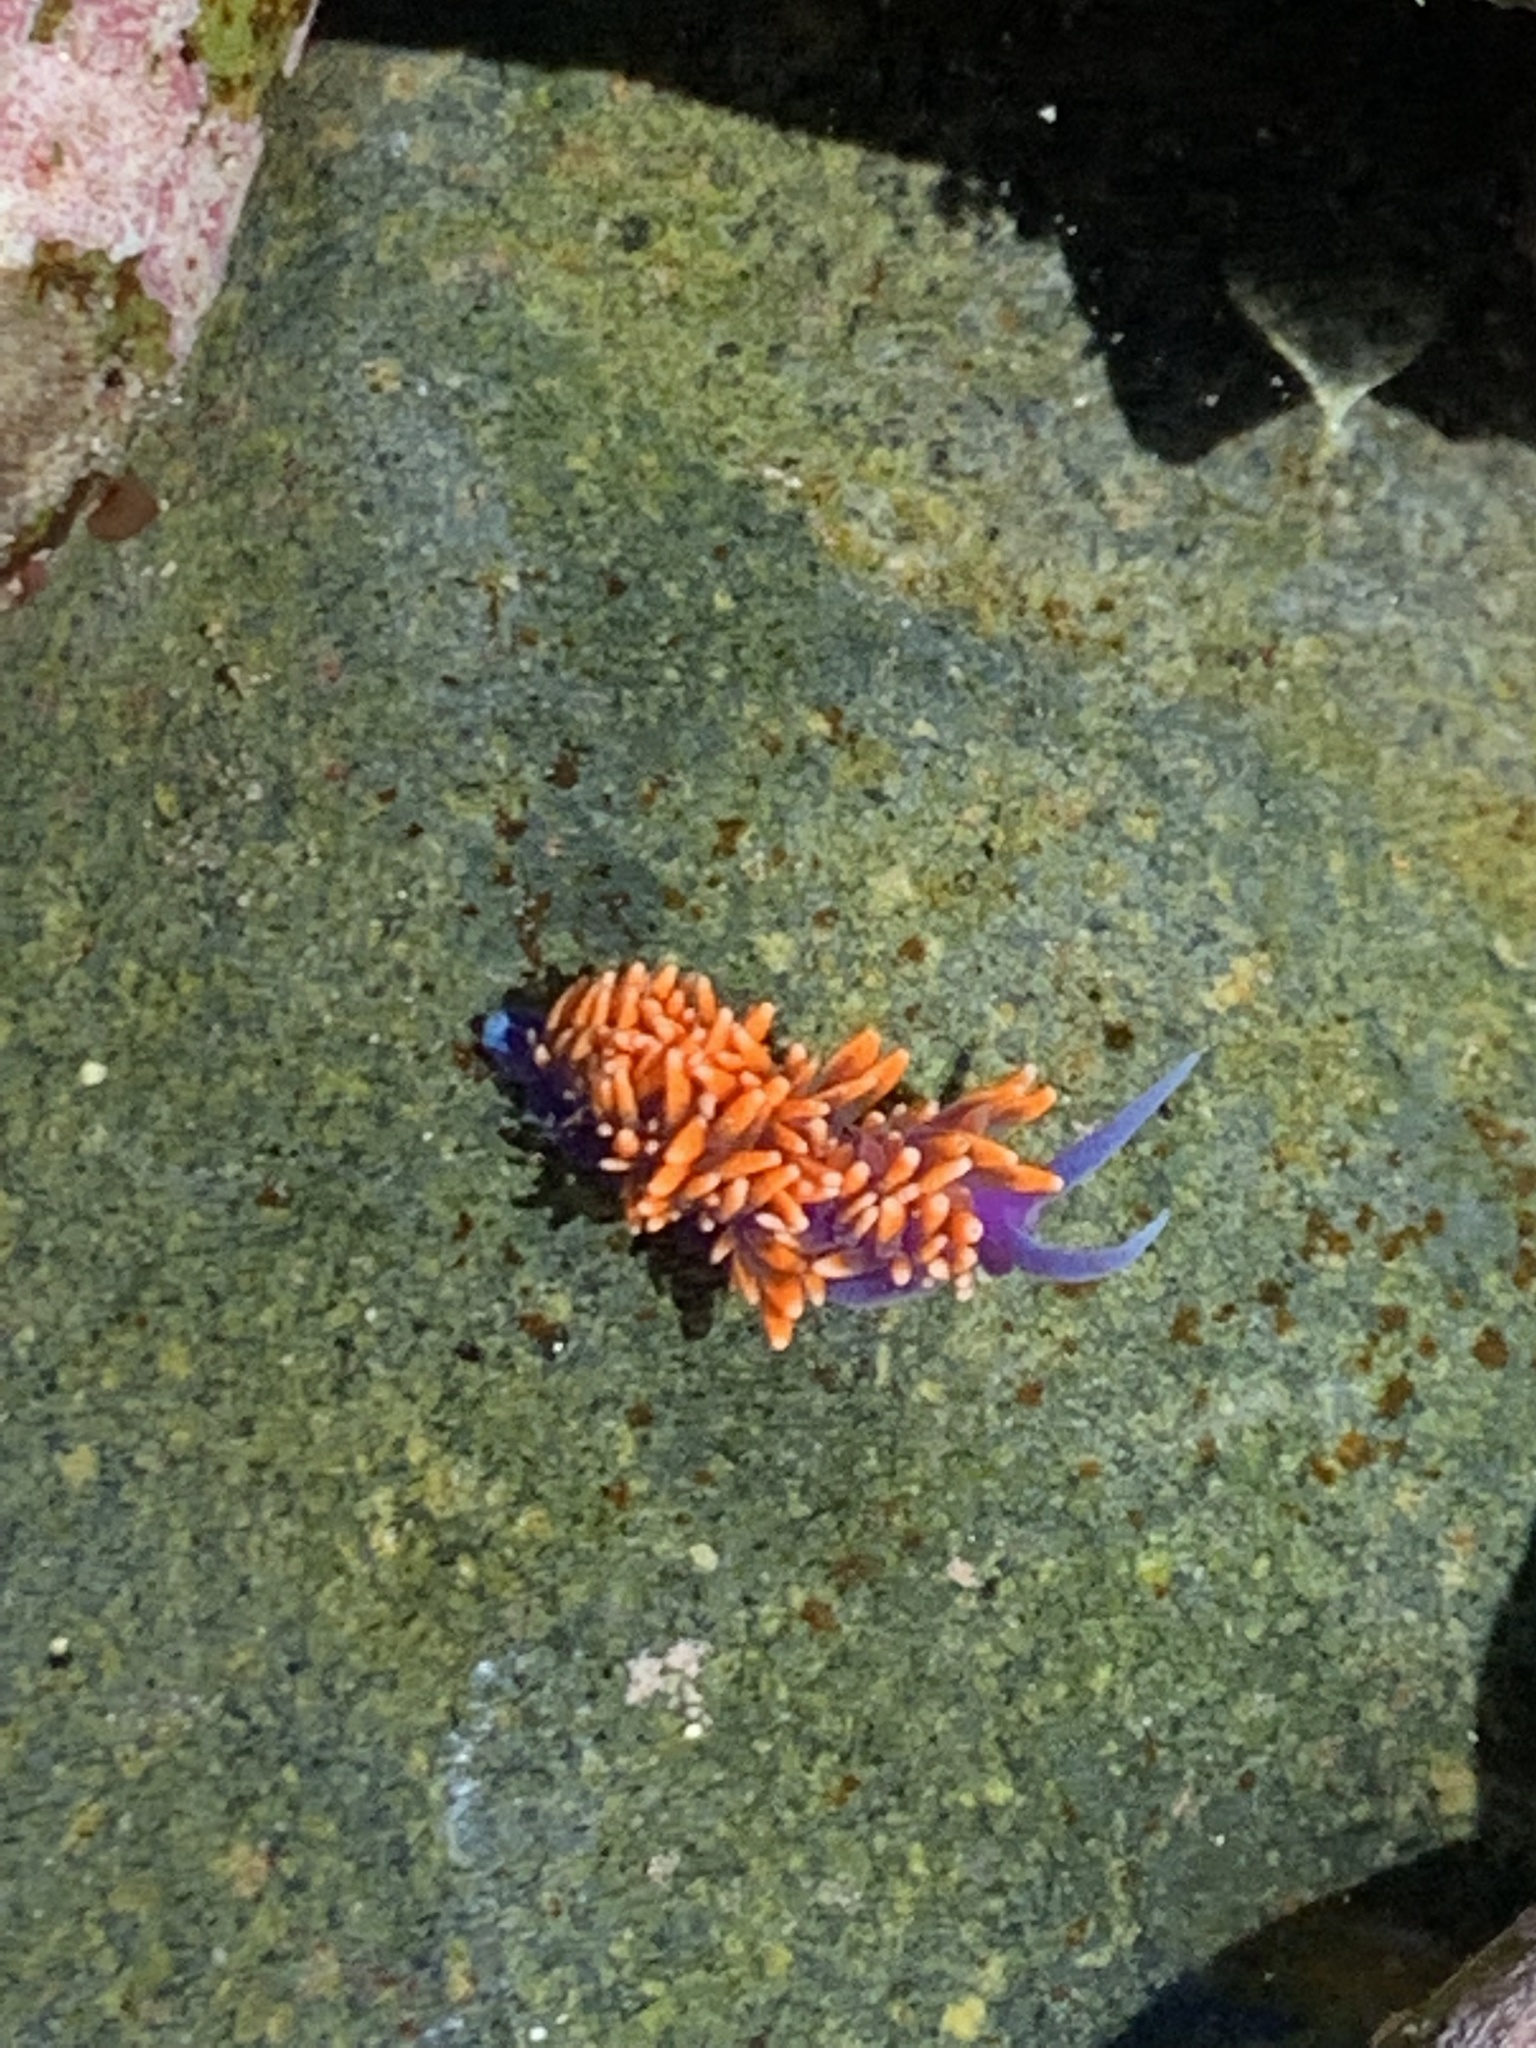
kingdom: Animalia
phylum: Mollusca
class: Gastropoda
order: Nudibranchia
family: Flabellinopsidae
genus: Flabellinopsis
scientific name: Flabellinopsis iodinea
